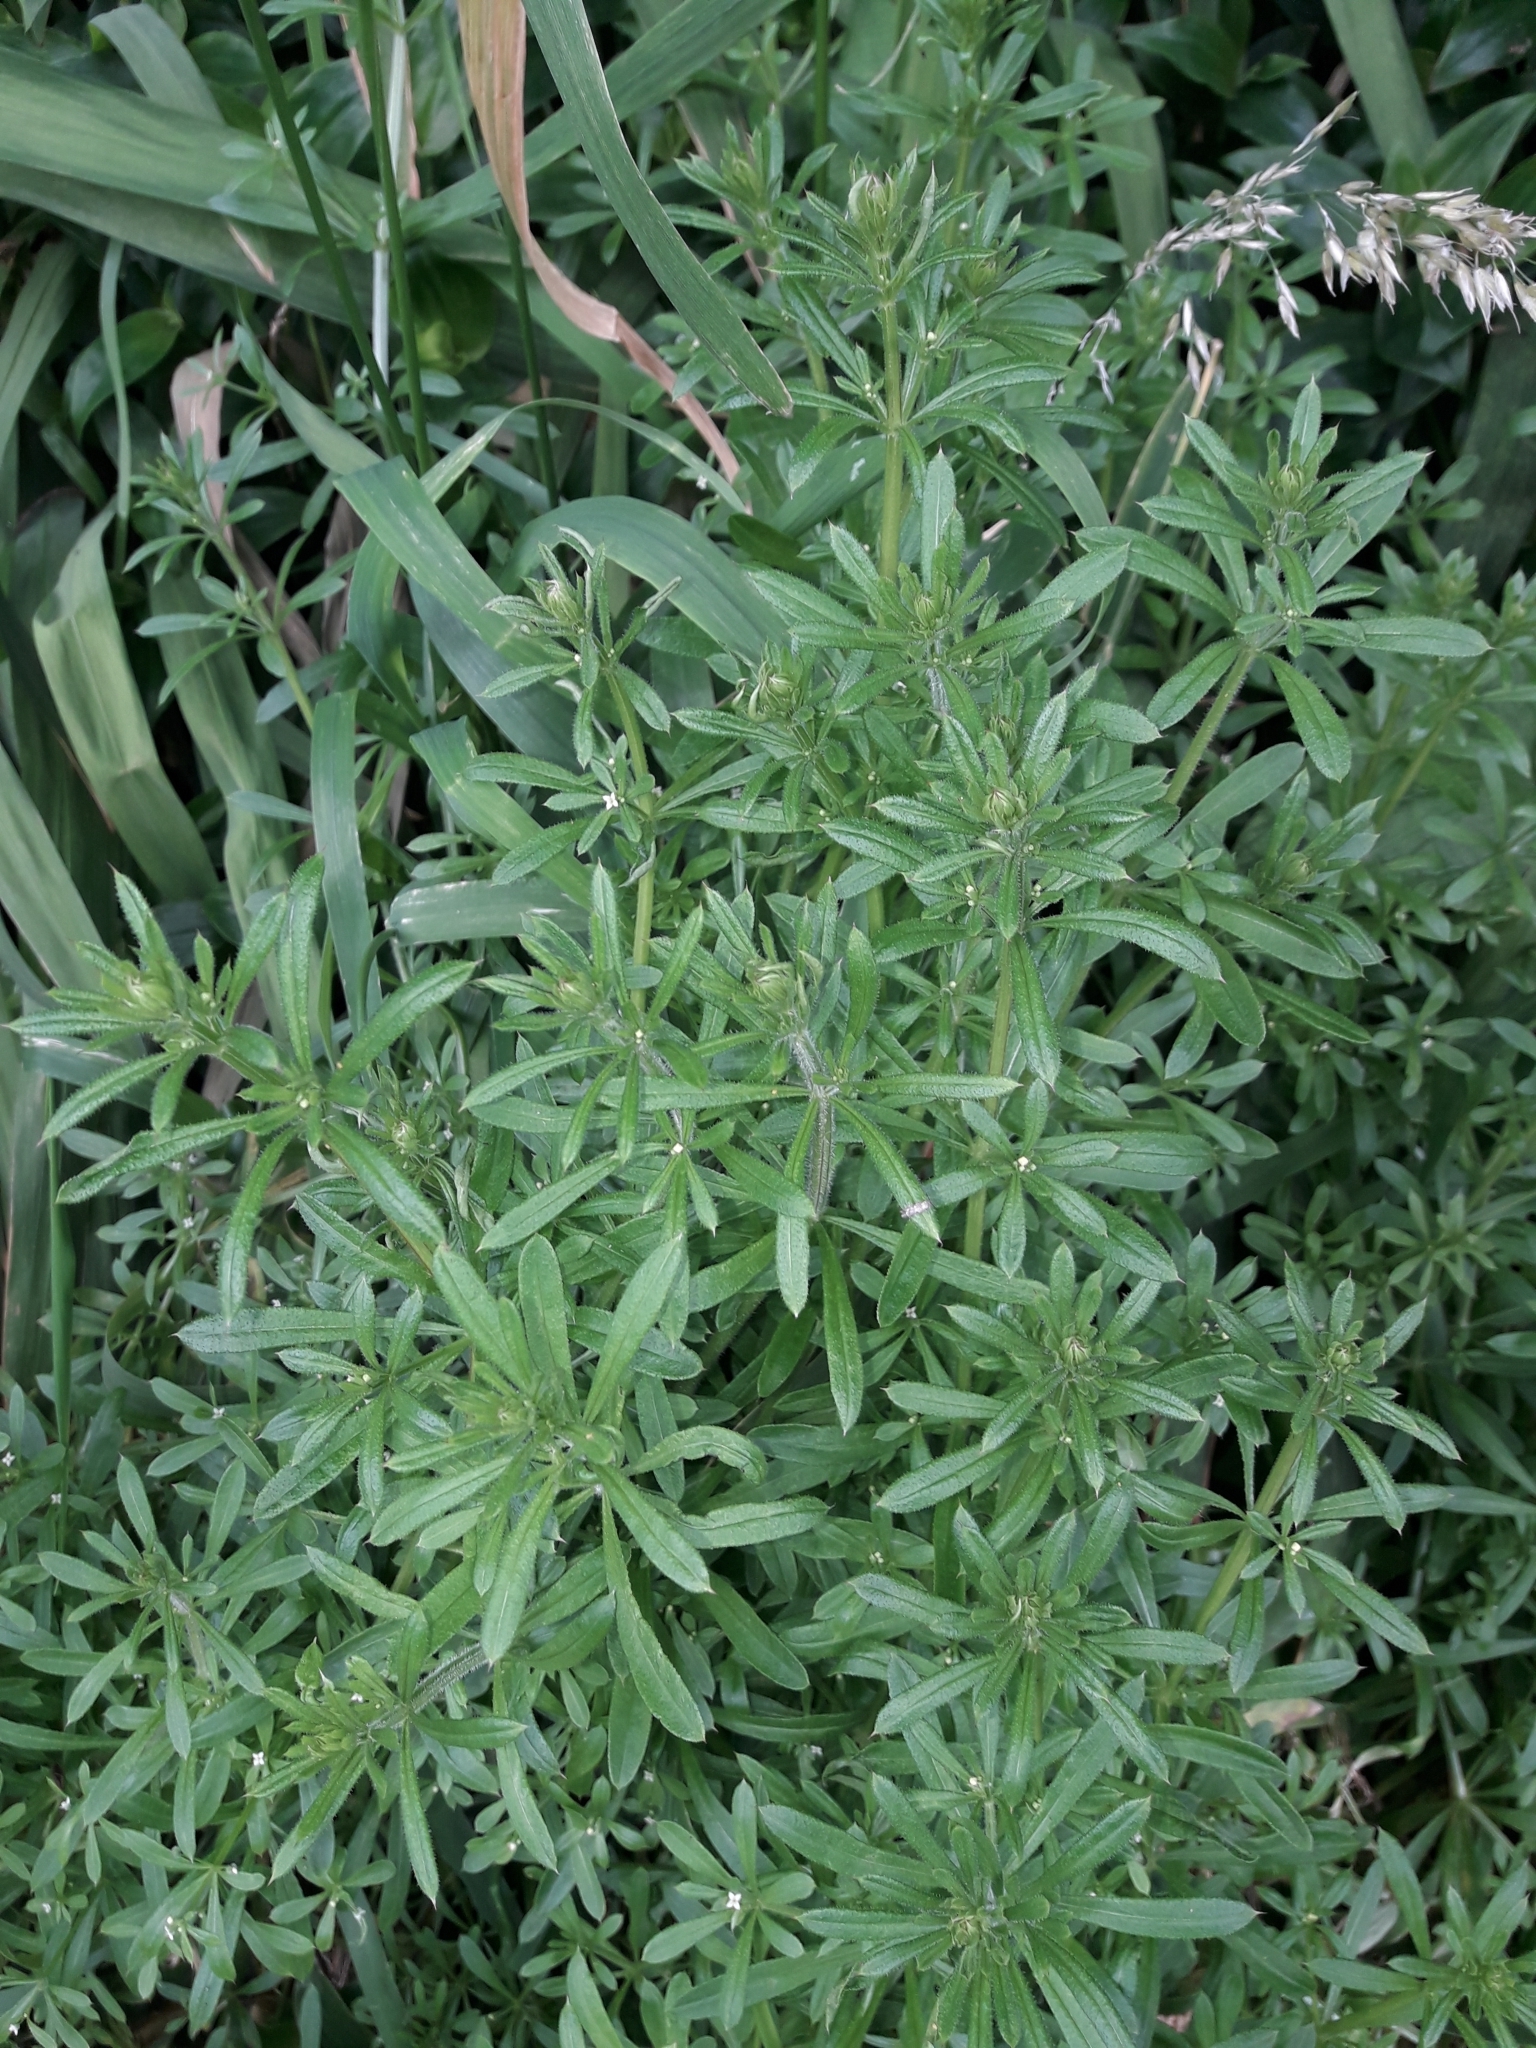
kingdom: Plantae
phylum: Tracheophyta
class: Magnoliopsida
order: Gentianales
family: Rubiaceae
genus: Galium
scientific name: Galium aparine
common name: Cleavers
